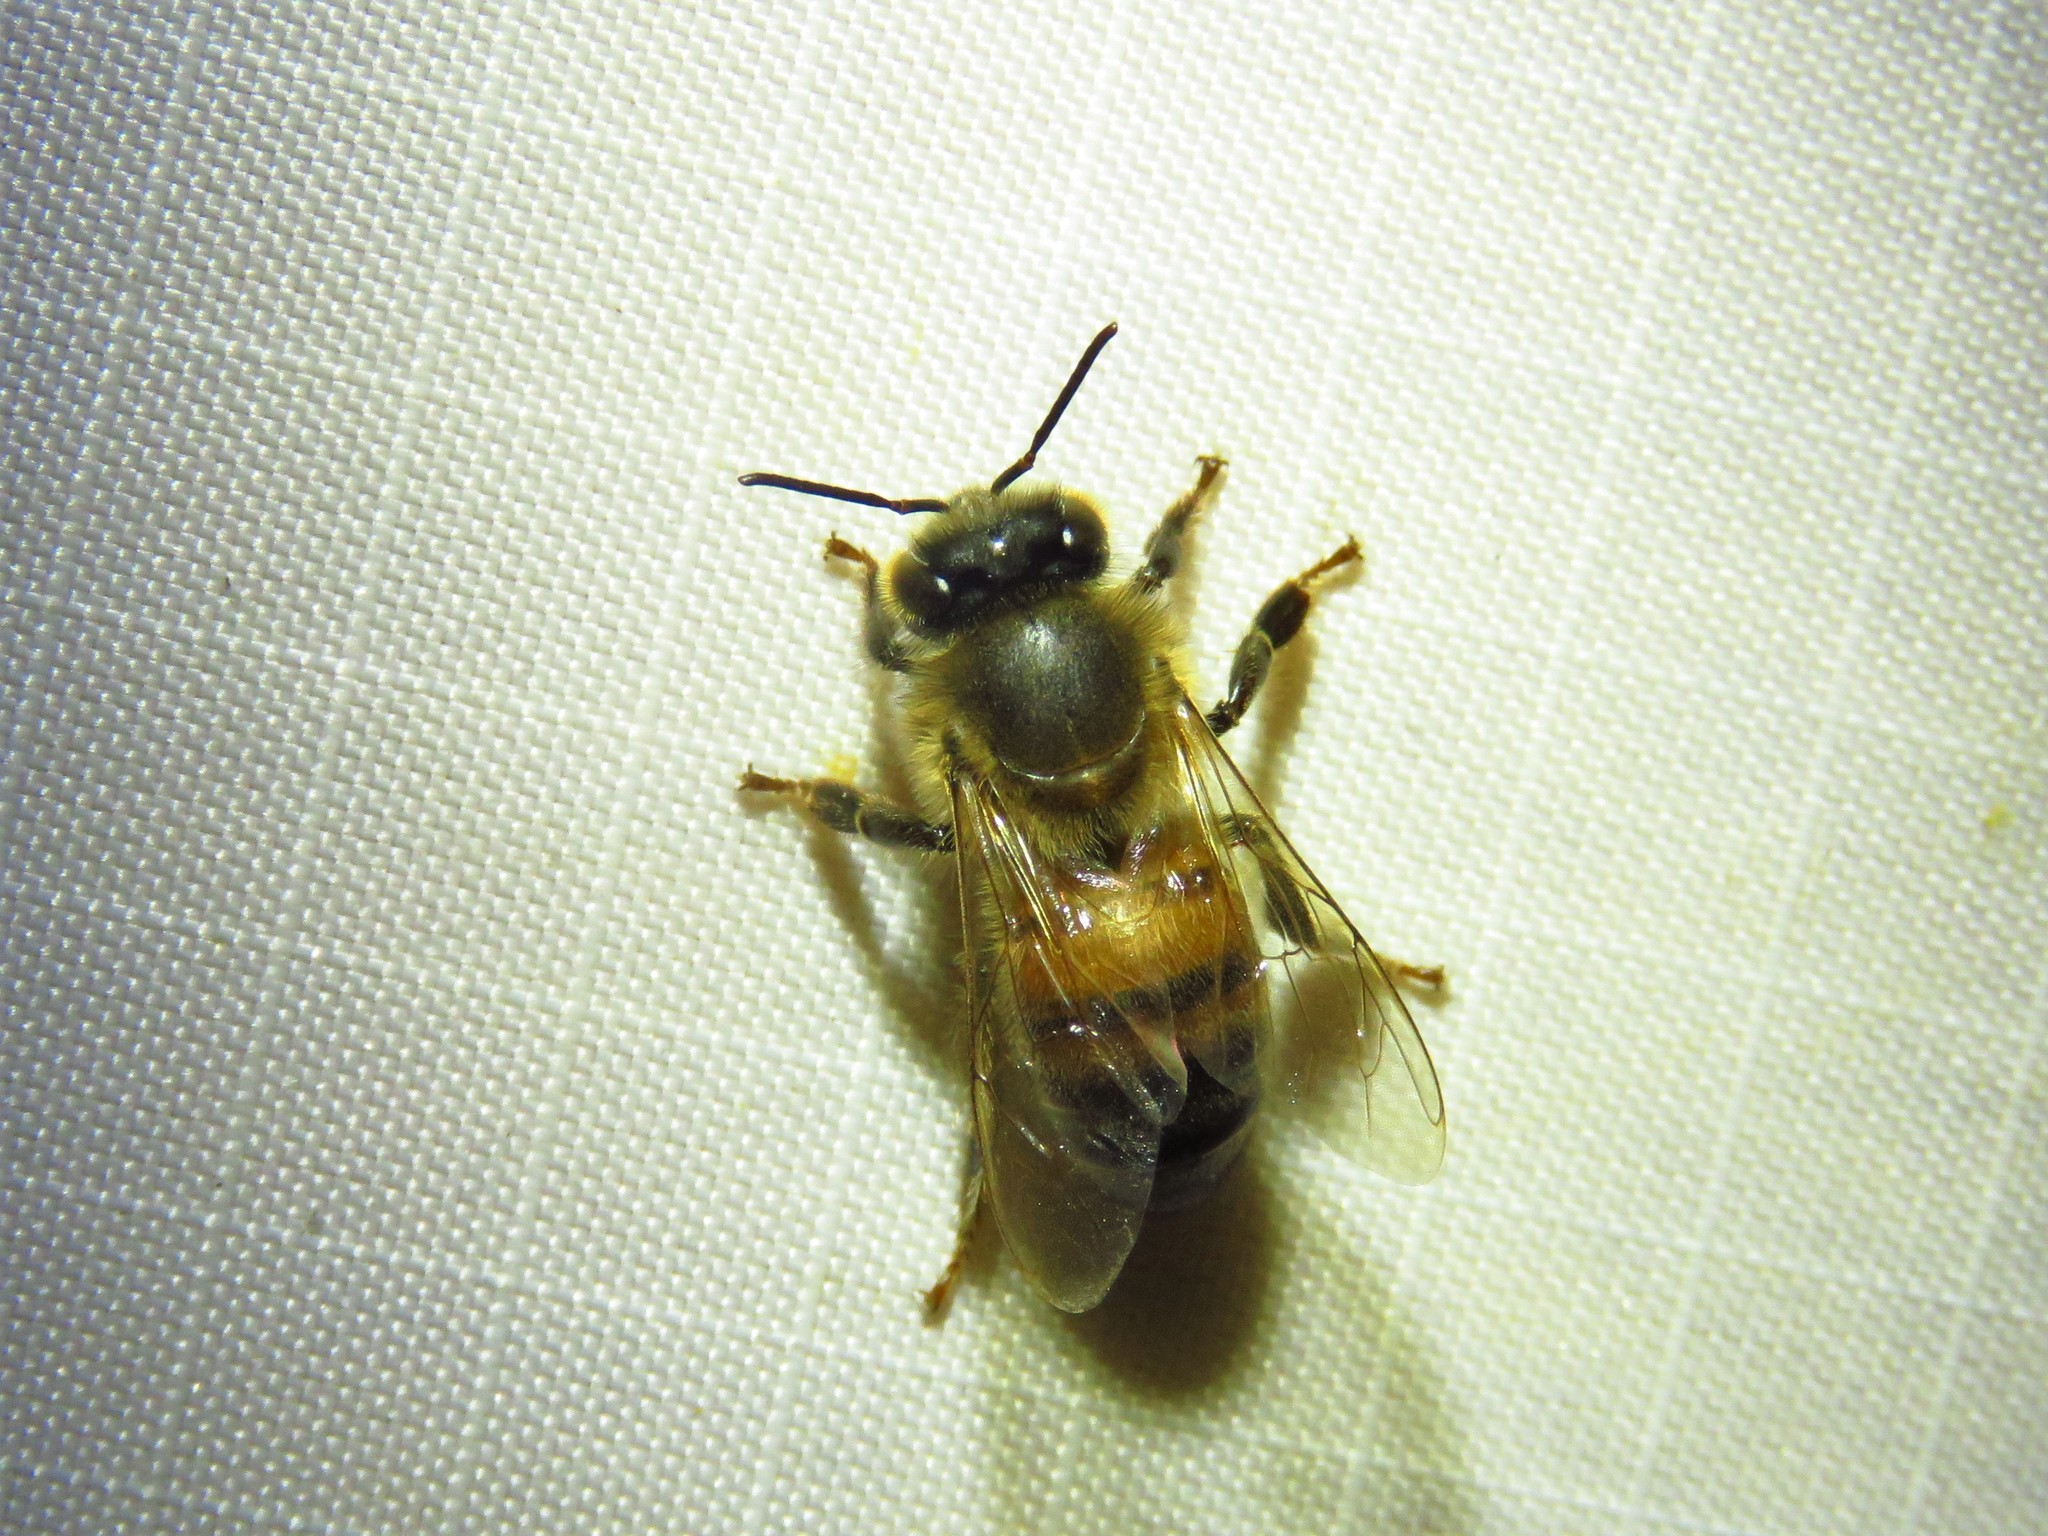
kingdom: Animalia
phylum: Arthropoda
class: Insecta
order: Hymenoptera
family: Apidae
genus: Apis
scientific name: Apis mellifera
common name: Honey bee
